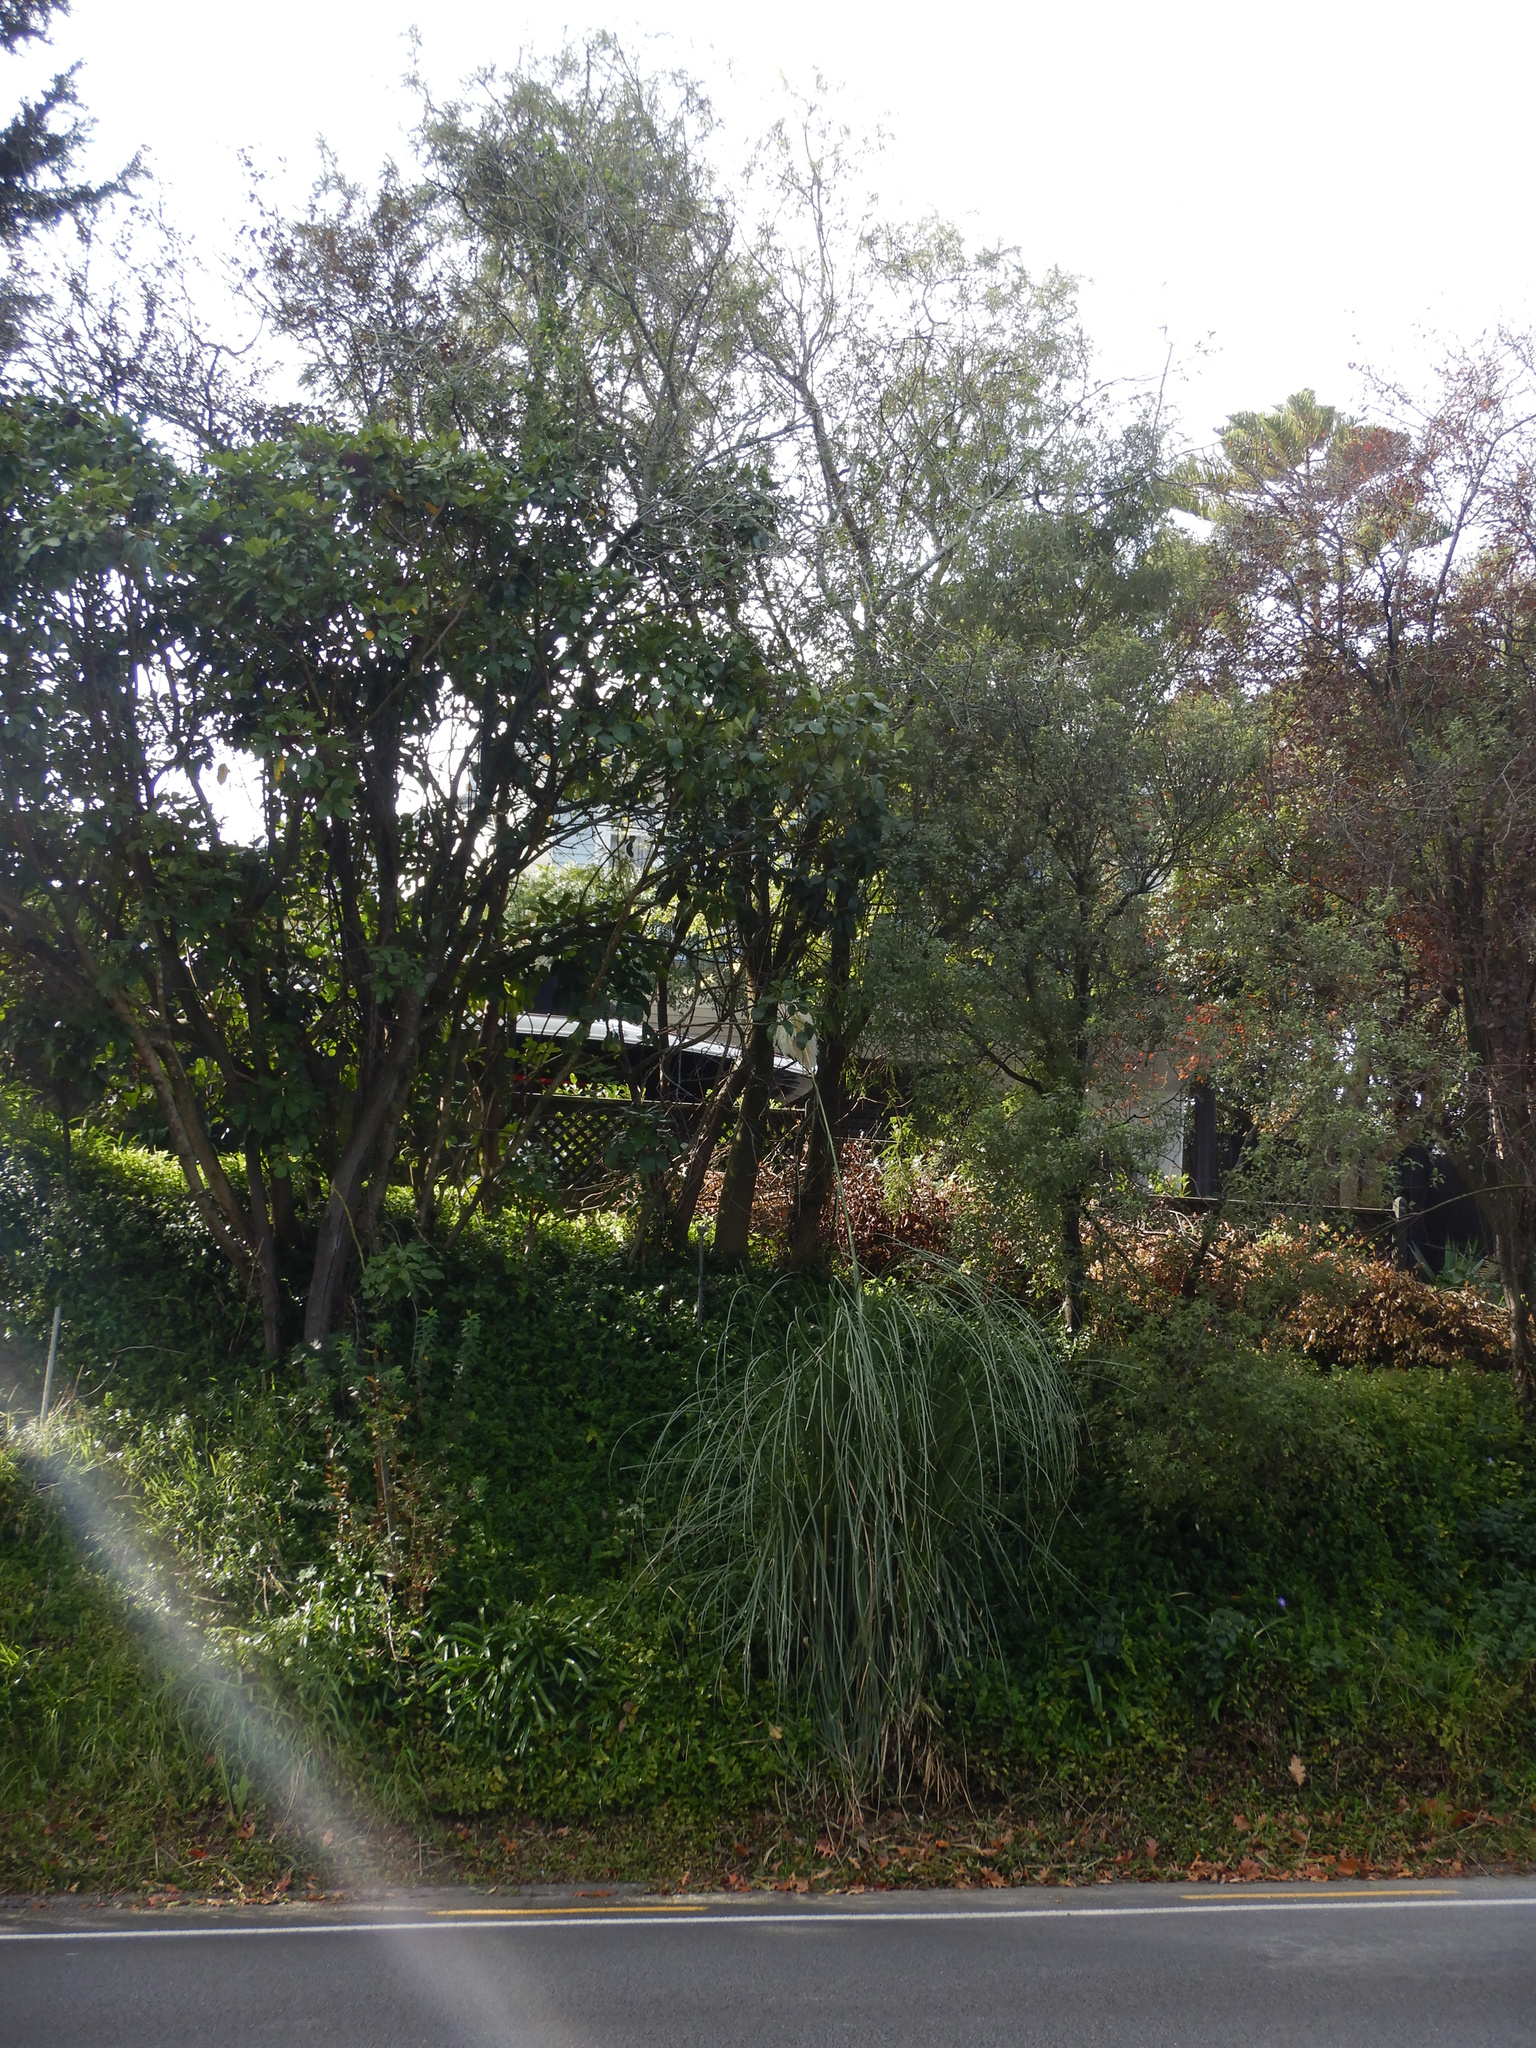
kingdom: Plantae
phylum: Tracheophyta
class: Liliopsida
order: Poales
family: Poaceae
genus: Cortaderia
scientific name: Cortaderia selloana
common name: Uruguayan pampas grass
